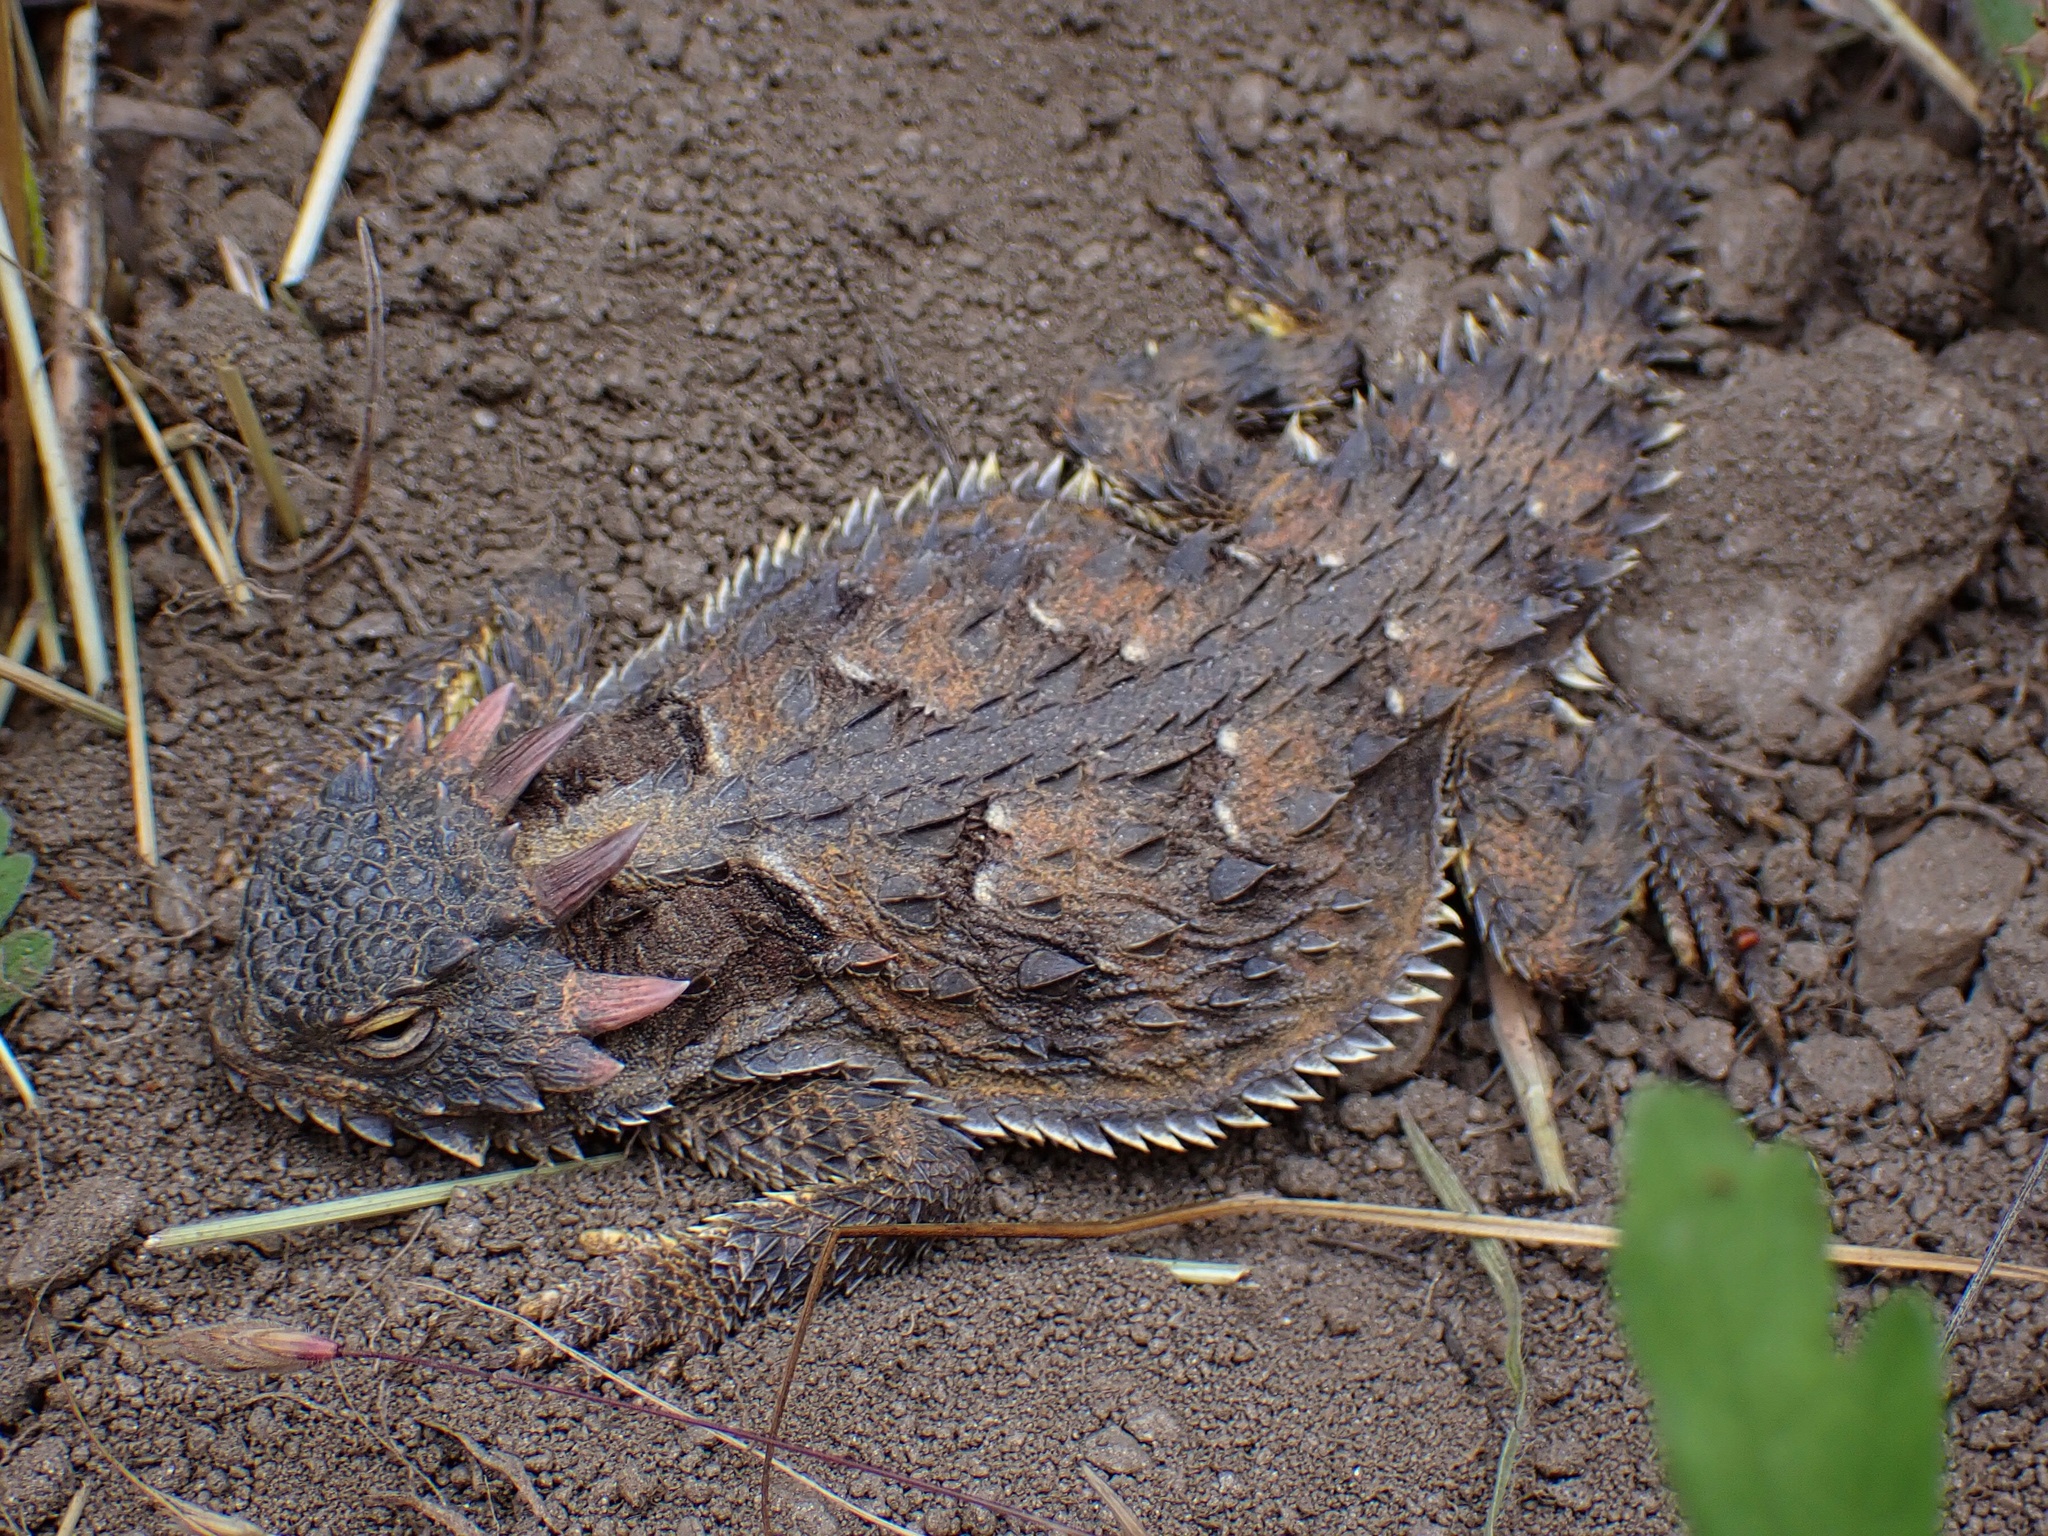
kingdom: Animalia
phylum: Chordata
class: Squamata
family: Phrynosomatidae
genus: Phrynosoma
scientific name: Phrynosoma blainvillii
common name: San diego horned lizard
